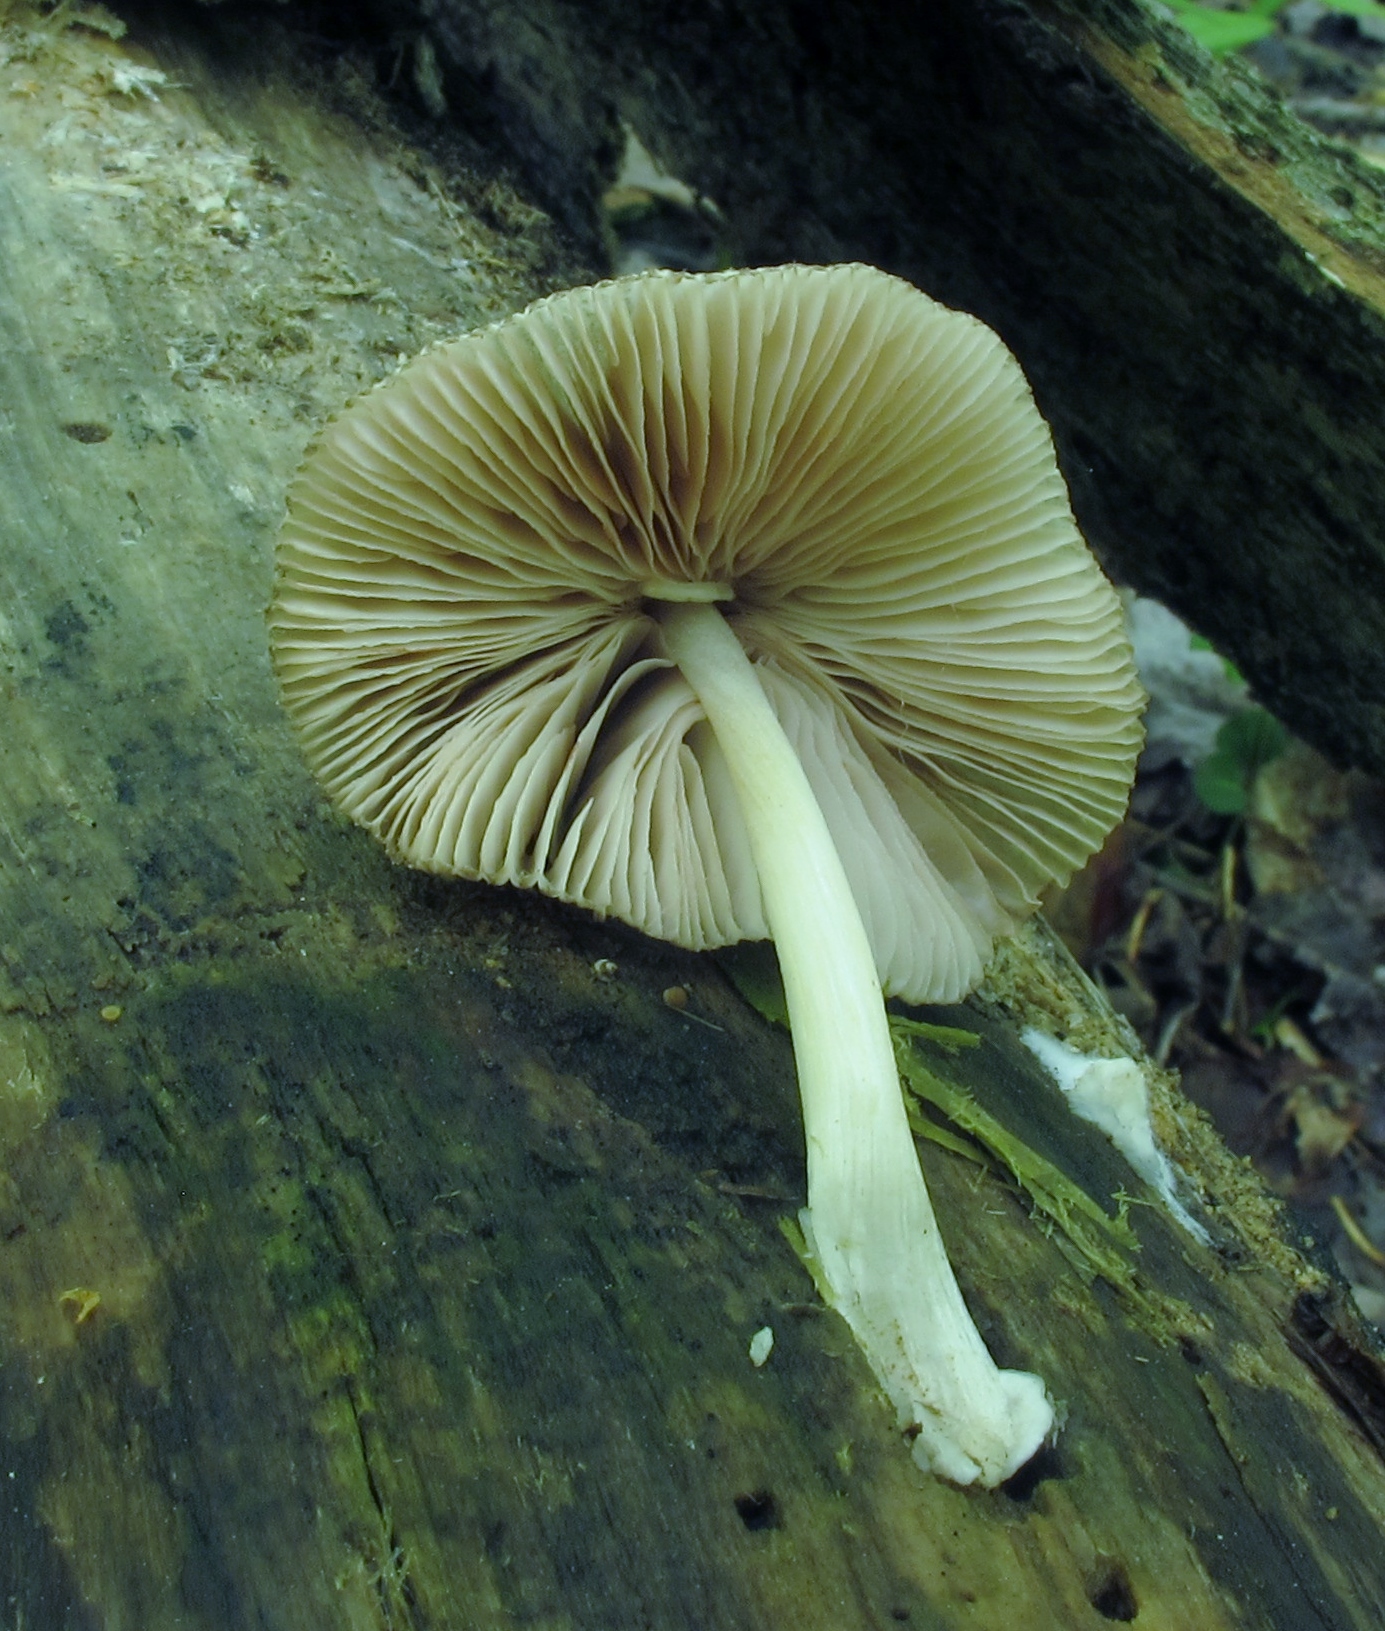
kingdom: Fungi
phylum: Basidiomycota
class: Agaricomycetes
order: Agaricales
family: Pluteaceae
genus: Pluteus
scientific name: Pluteus longistriatus
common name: Pleated pluteus
